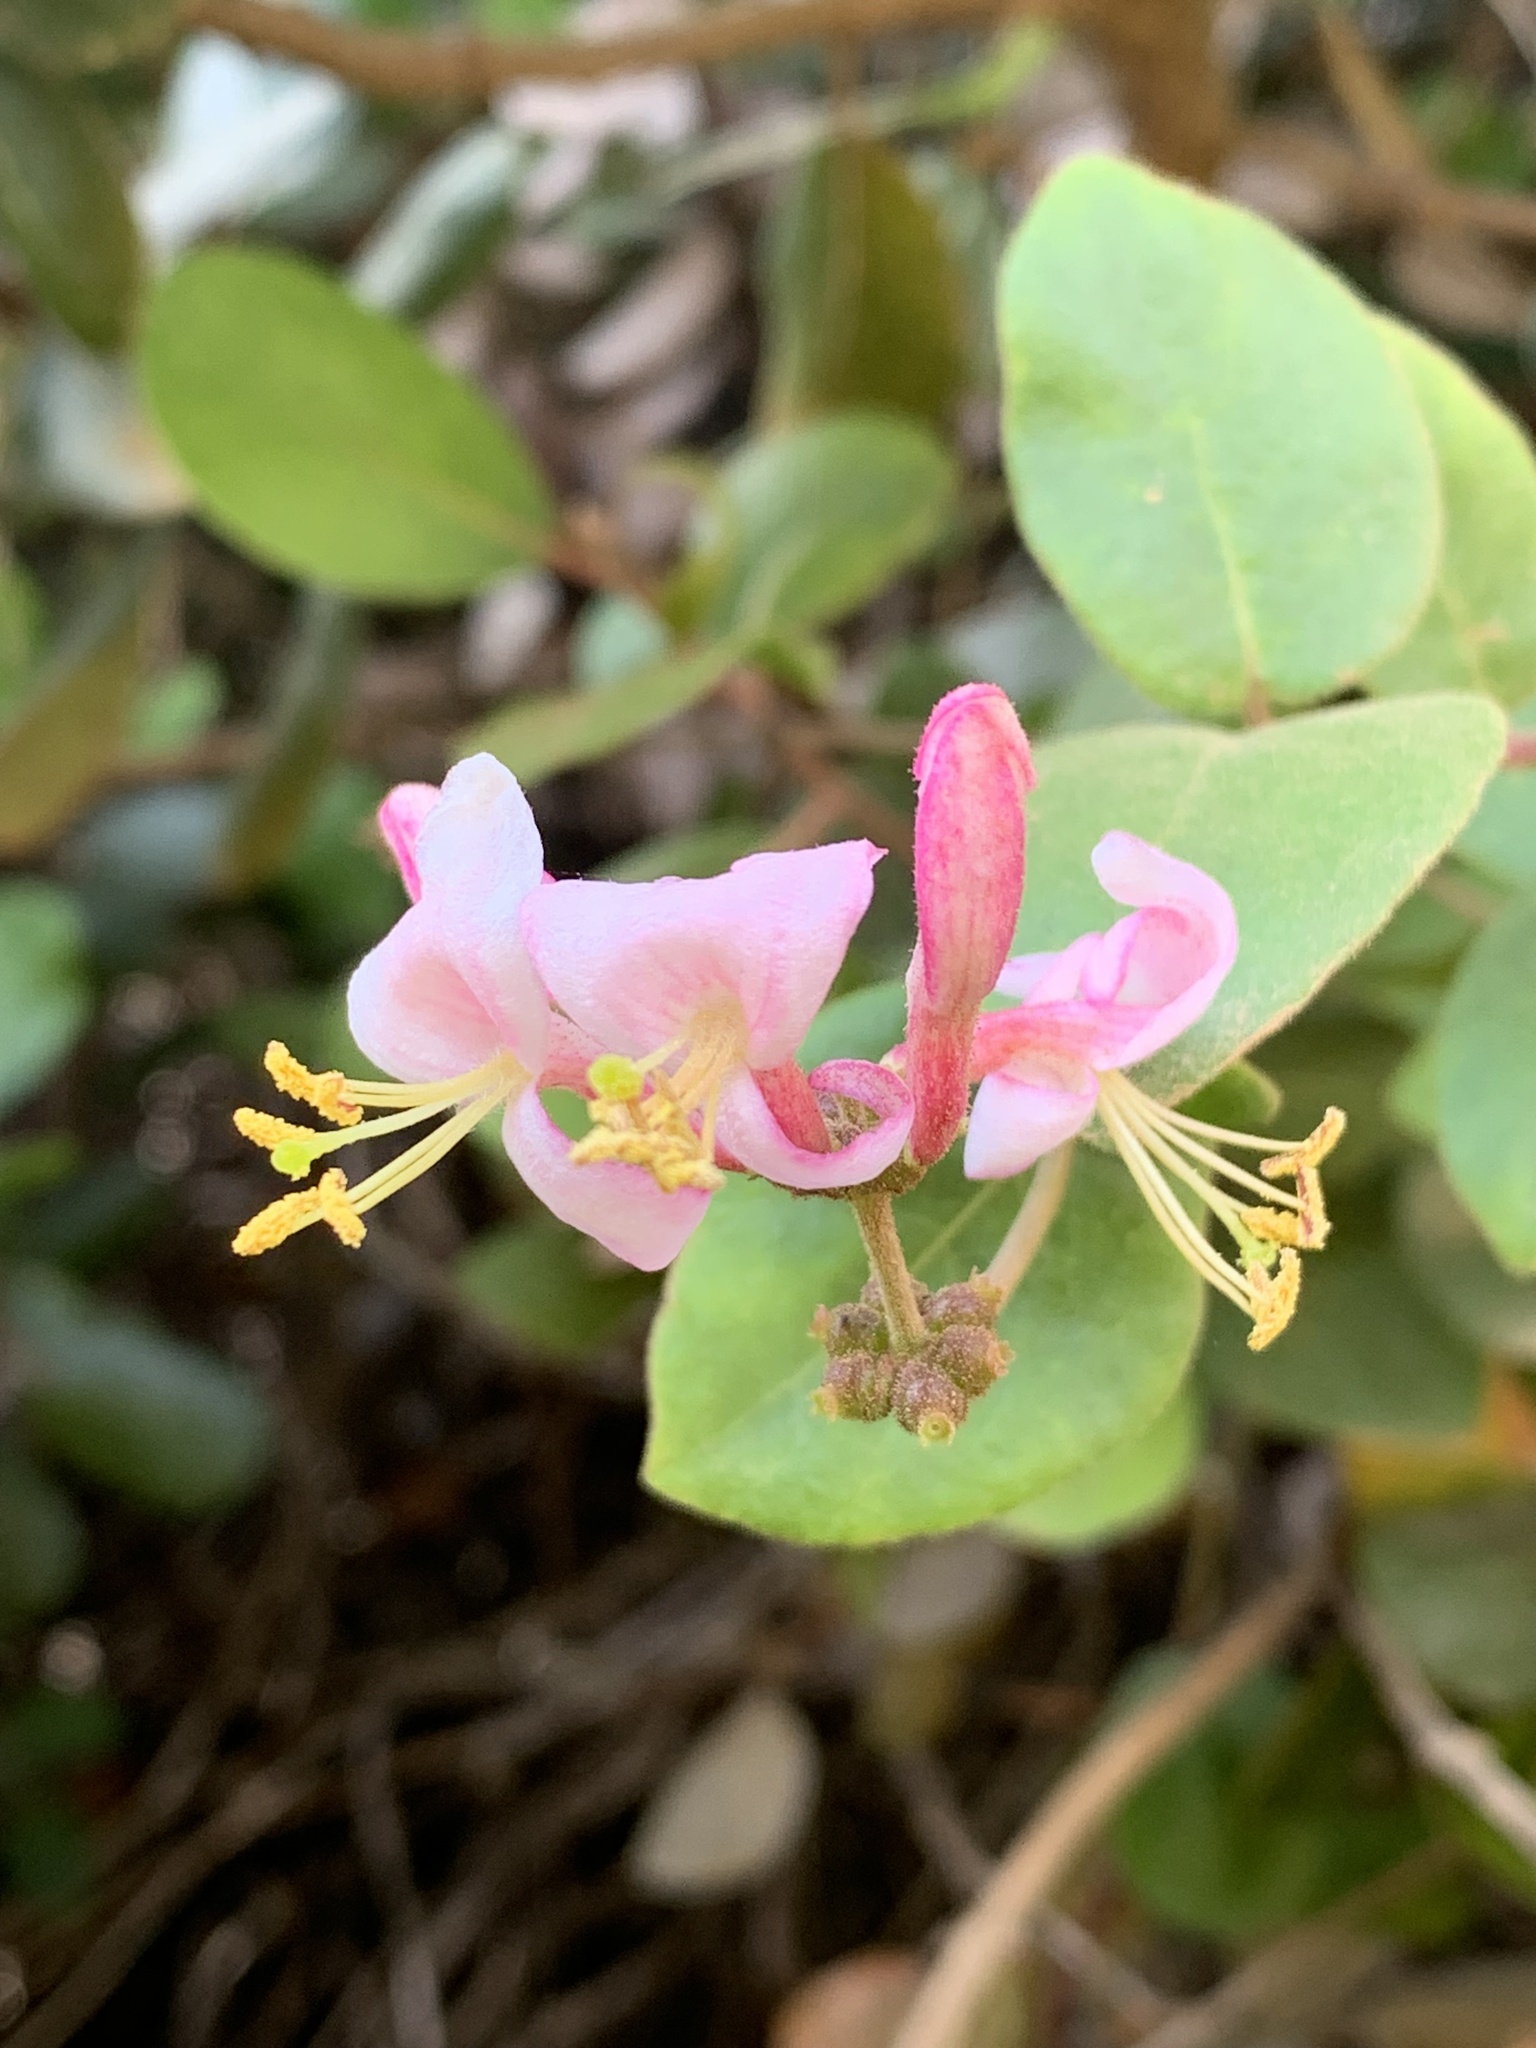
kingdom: Plantae
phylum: Tracheophyta
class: Magnoliopsida
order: Dipsacales
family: Caprifoliaceae
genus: Lonicera
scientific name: Lonicera hispidula
